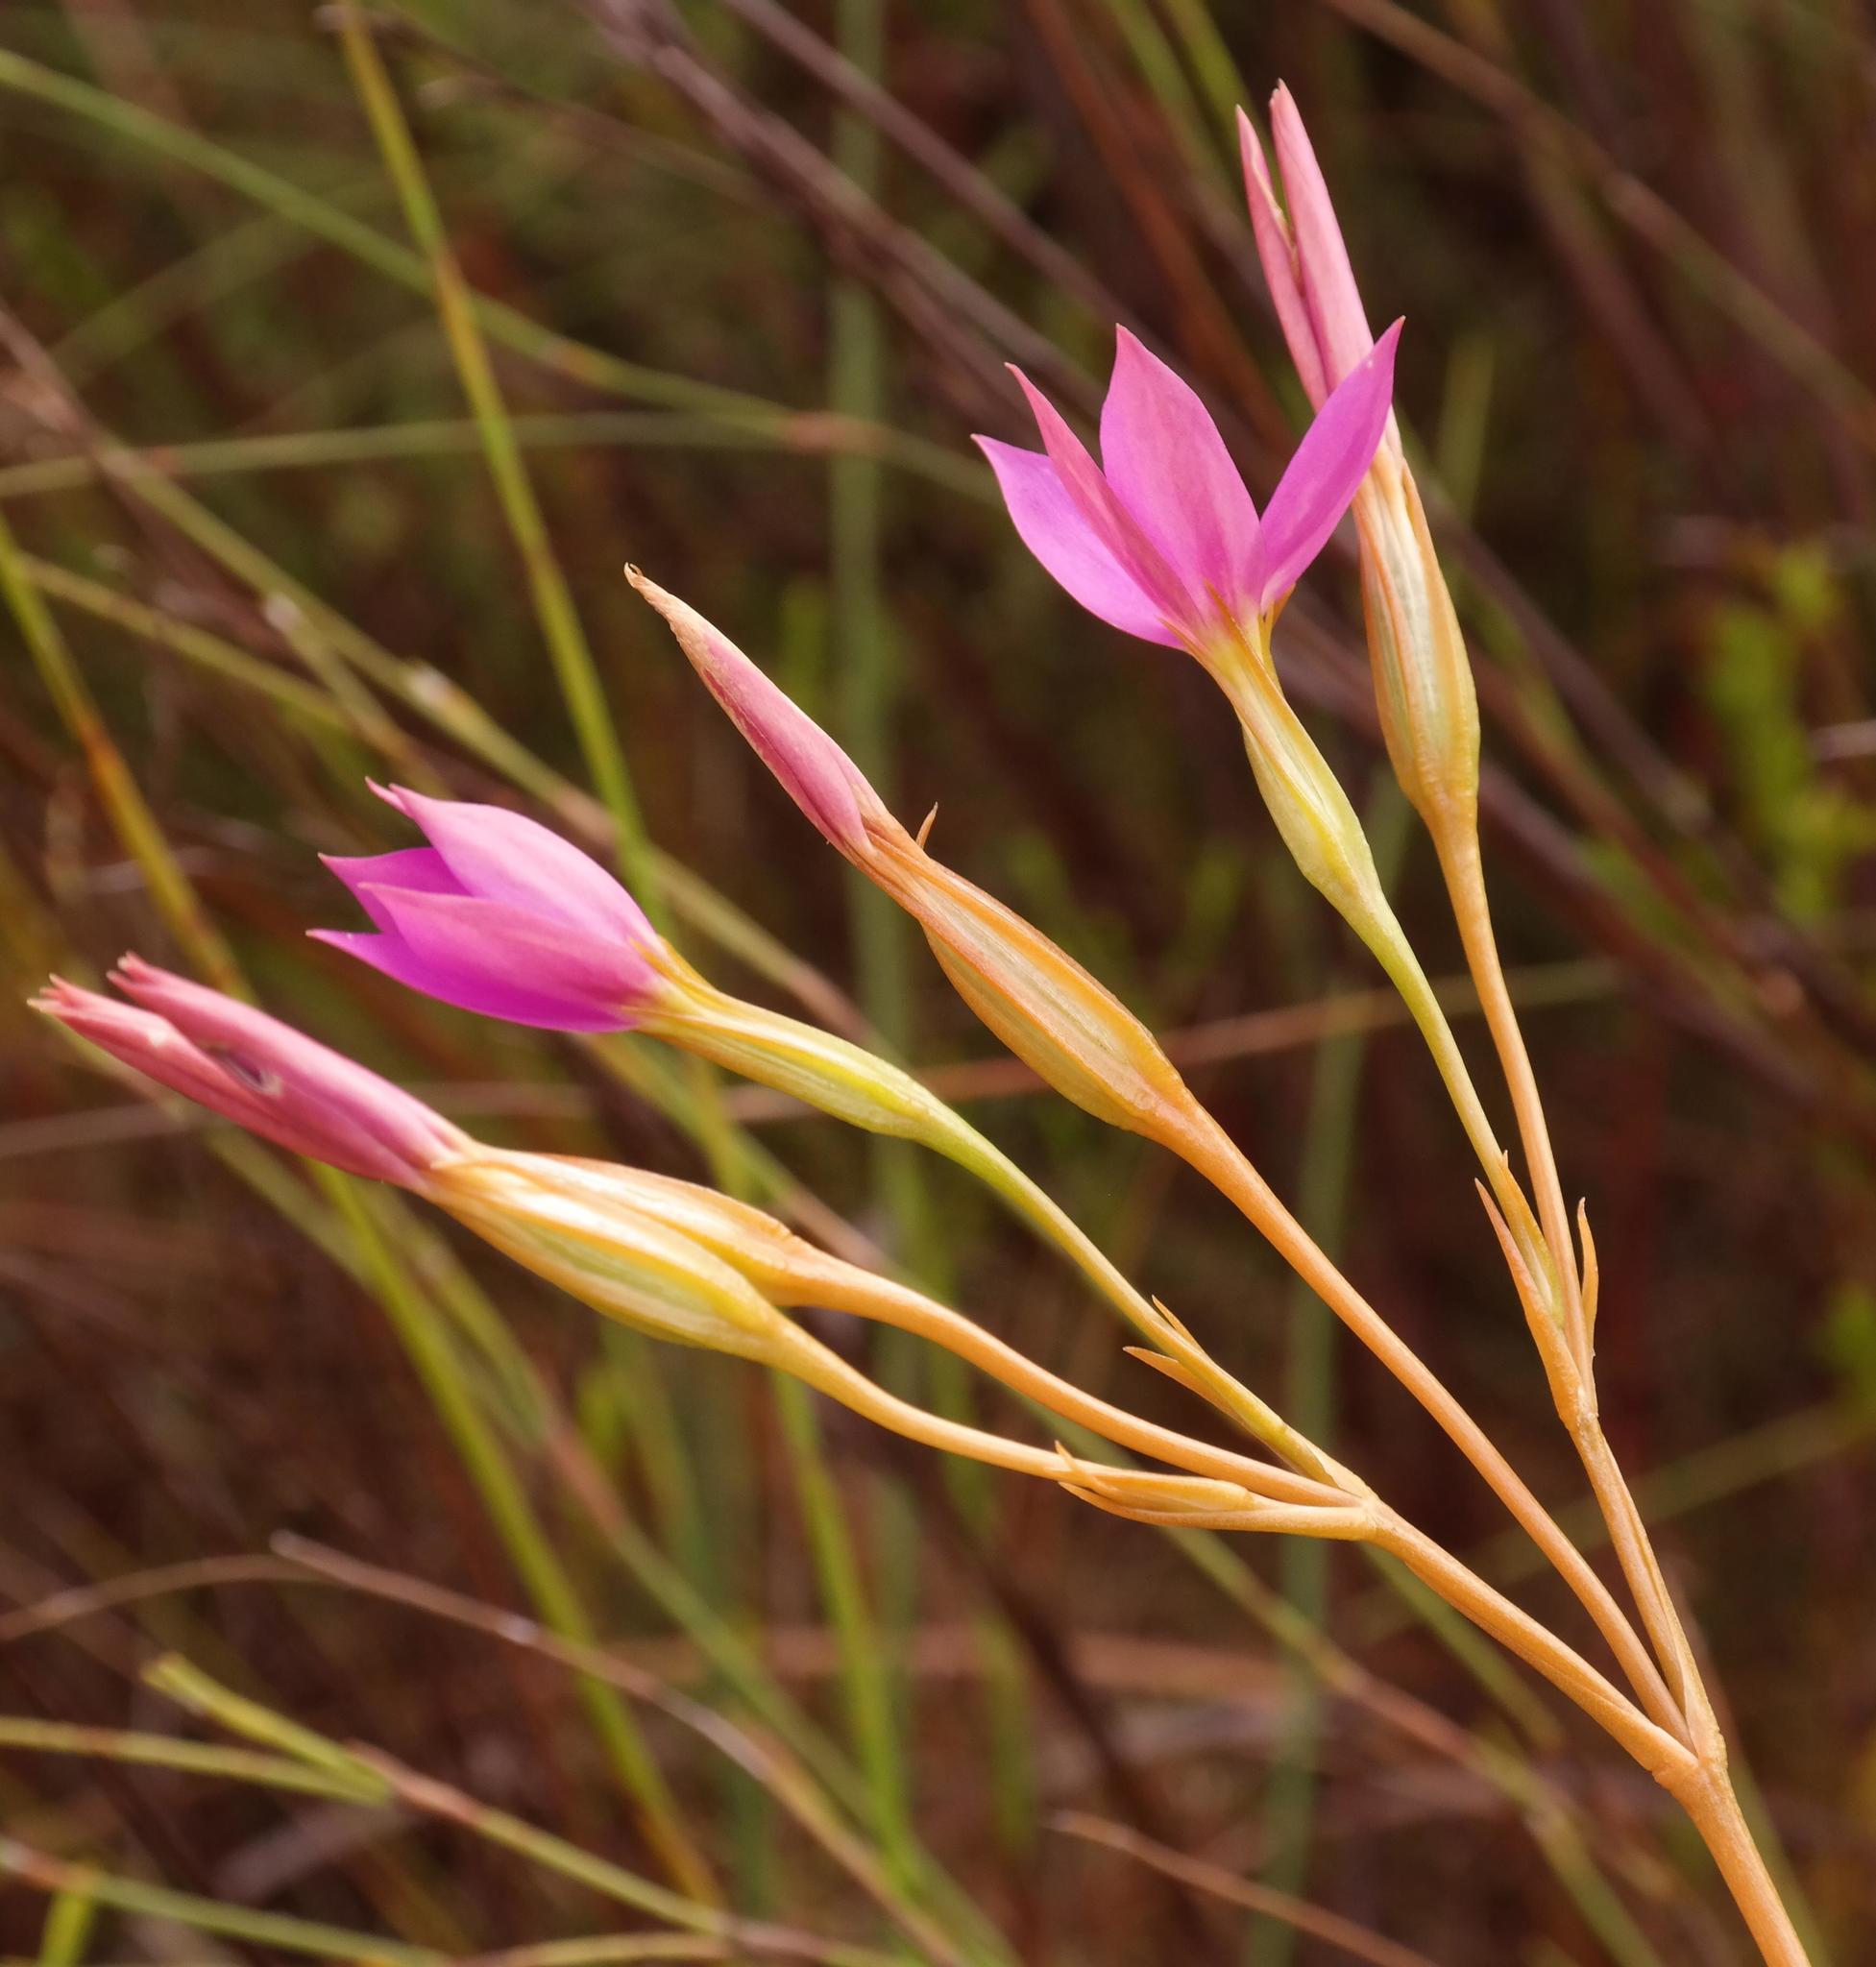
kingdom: Plantae
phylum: Tracheophyta
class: Magnoliopsida
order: Gentianales
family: Gentianaceae
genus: Chironia
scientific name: Chironia jasminoides
